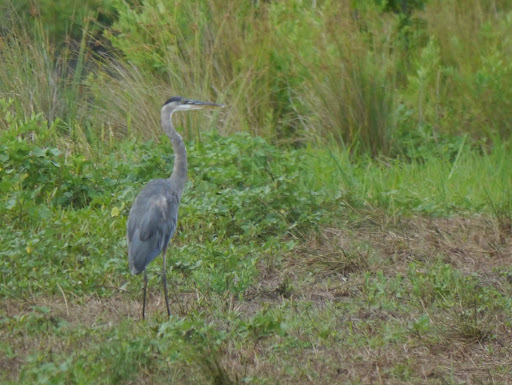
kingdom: Animalia
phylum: Chordata
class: Aves
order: Pelecaniformes
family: Ardeidae
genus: Ardea
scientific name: Ardea herodias
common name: Great blue heron
